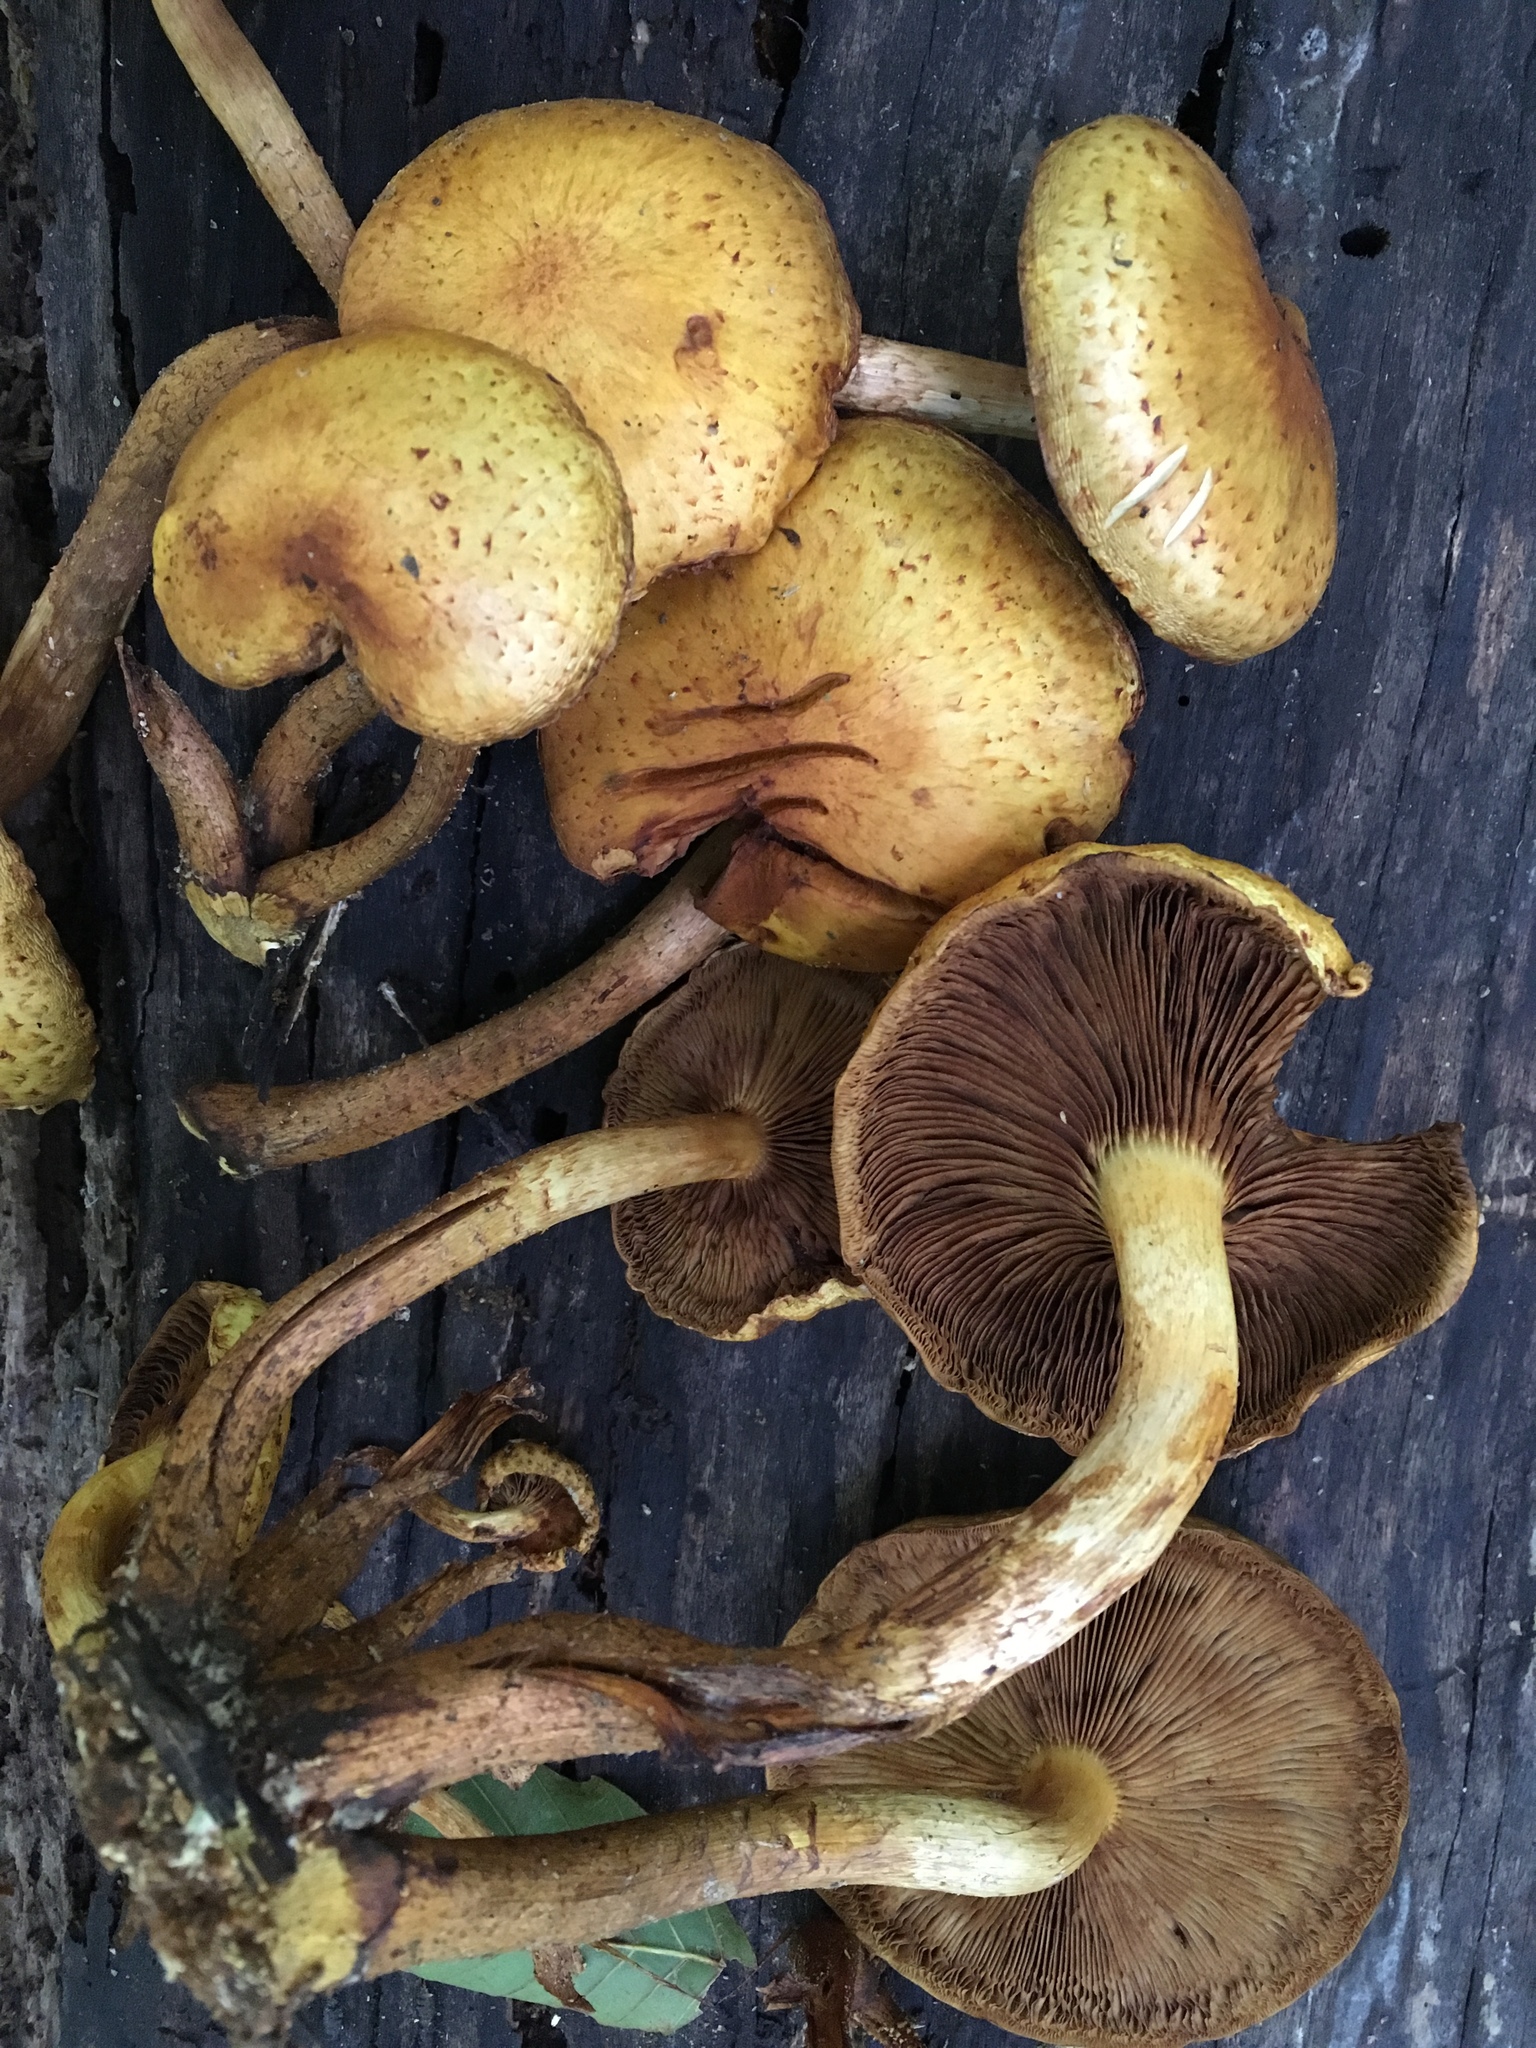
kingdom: Fungi
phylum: Basidiomycota
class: Agaricomycetes
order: Agaricales
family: Strophariaceae
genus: Pholiota
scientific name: Pholiota aurivella
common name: Golden scalycap
